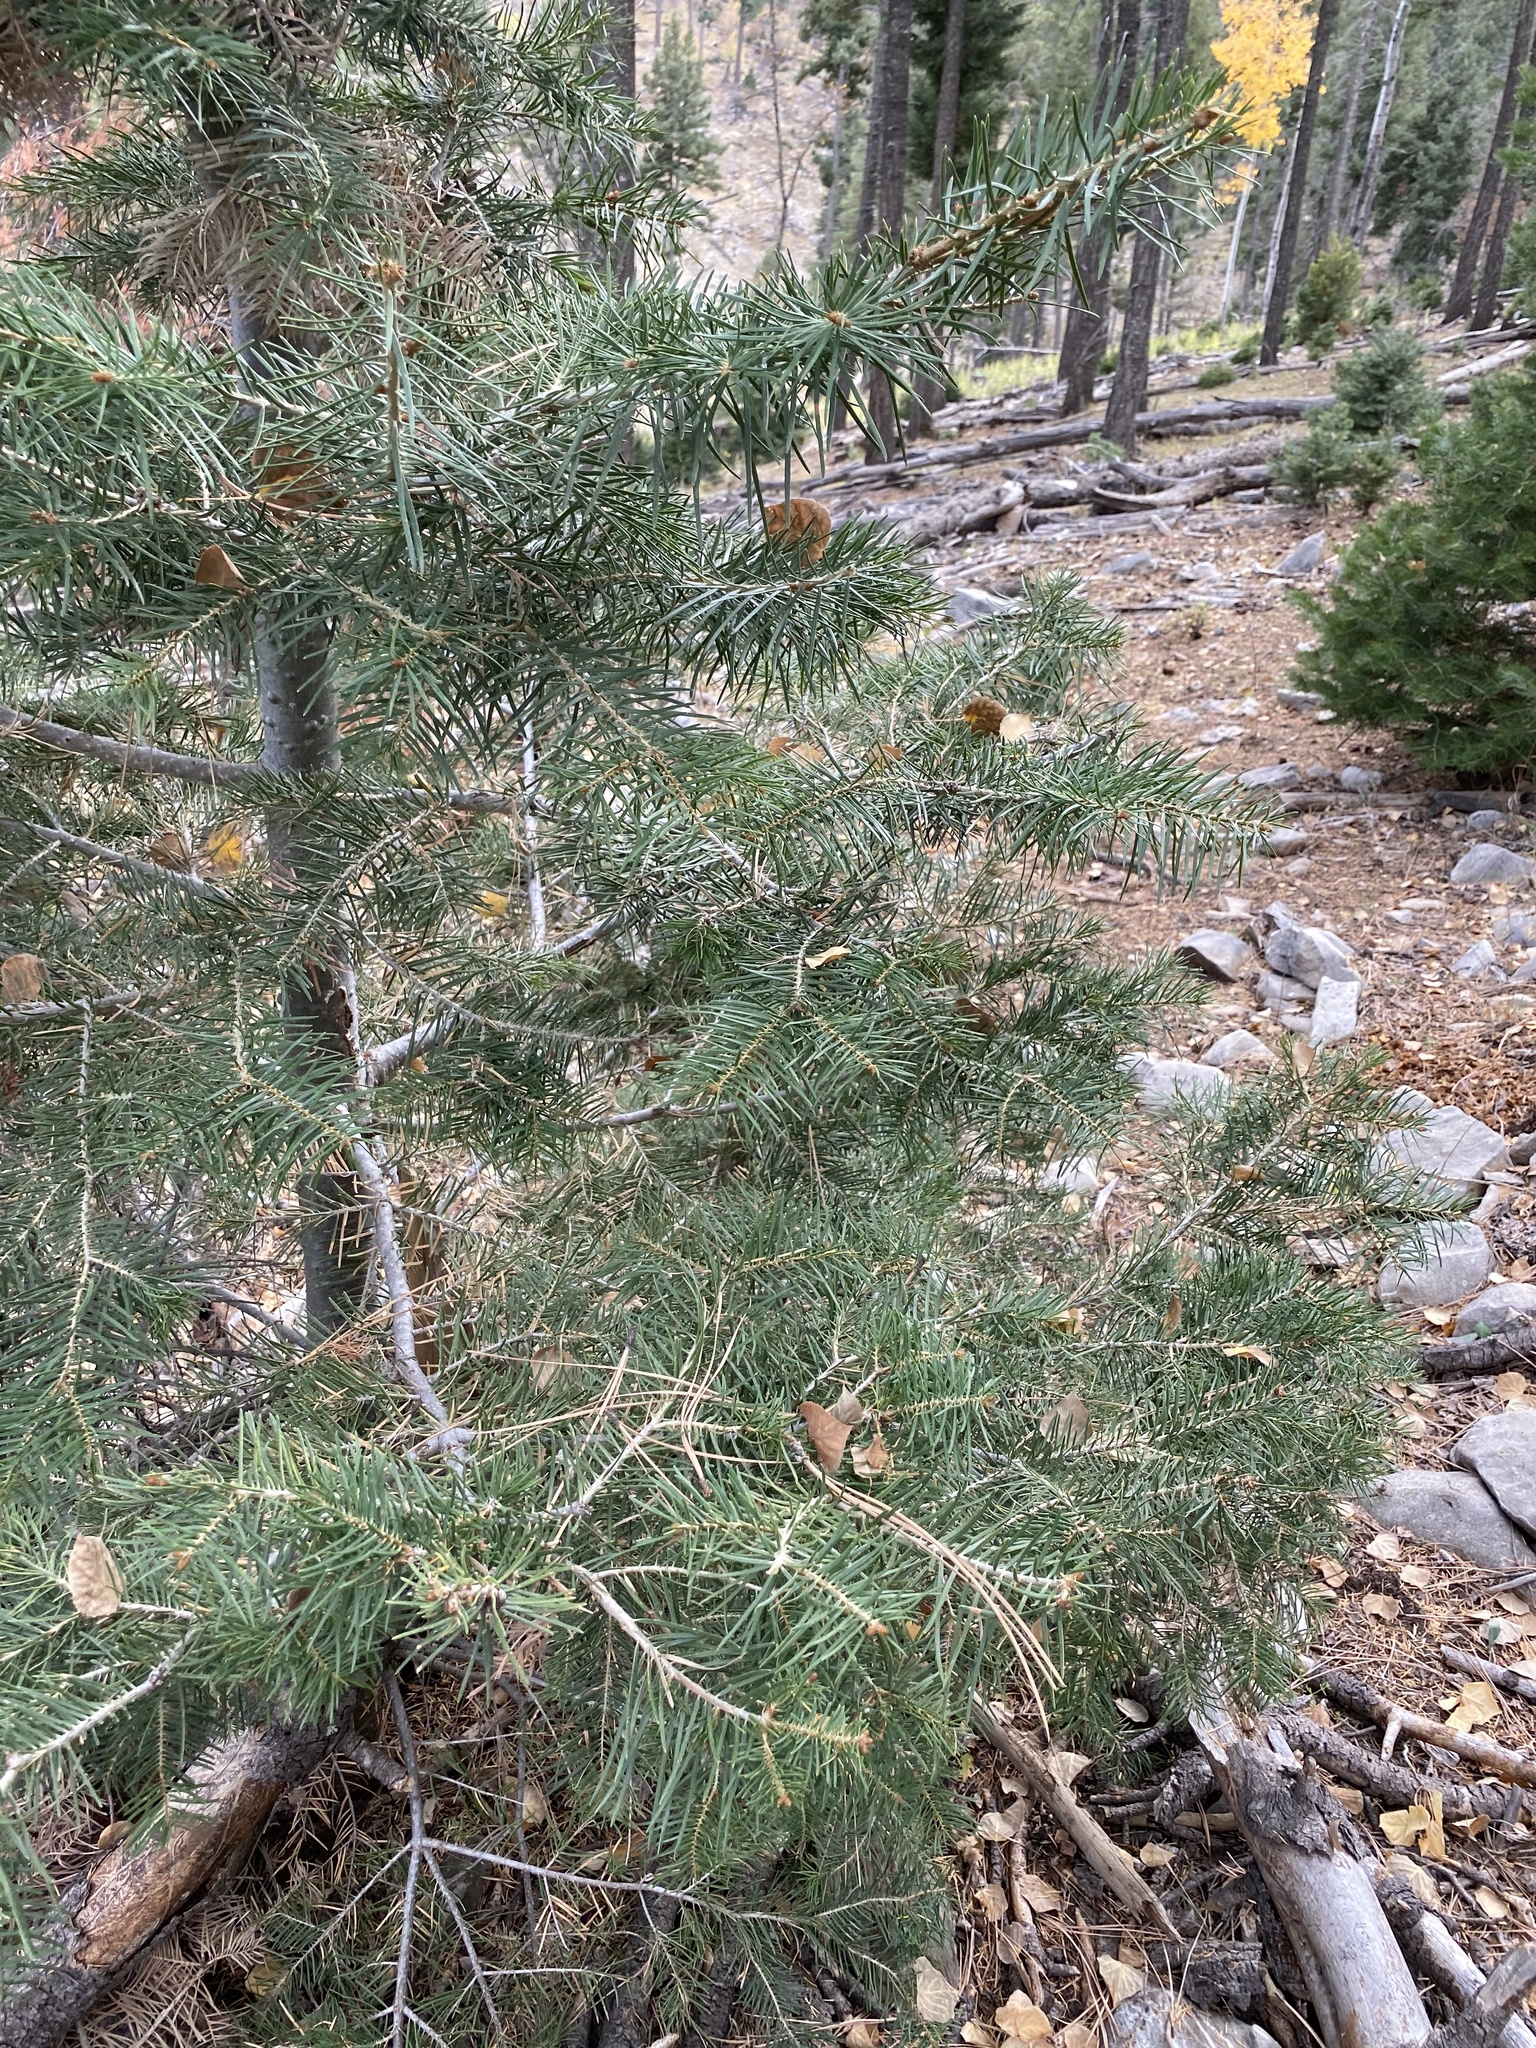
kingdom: Plantae
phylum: Tracheophyta
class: Pinopsida
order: Pinales
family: Pinaceae
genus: Abies
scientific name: Abies concolor
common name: Colorado fir
